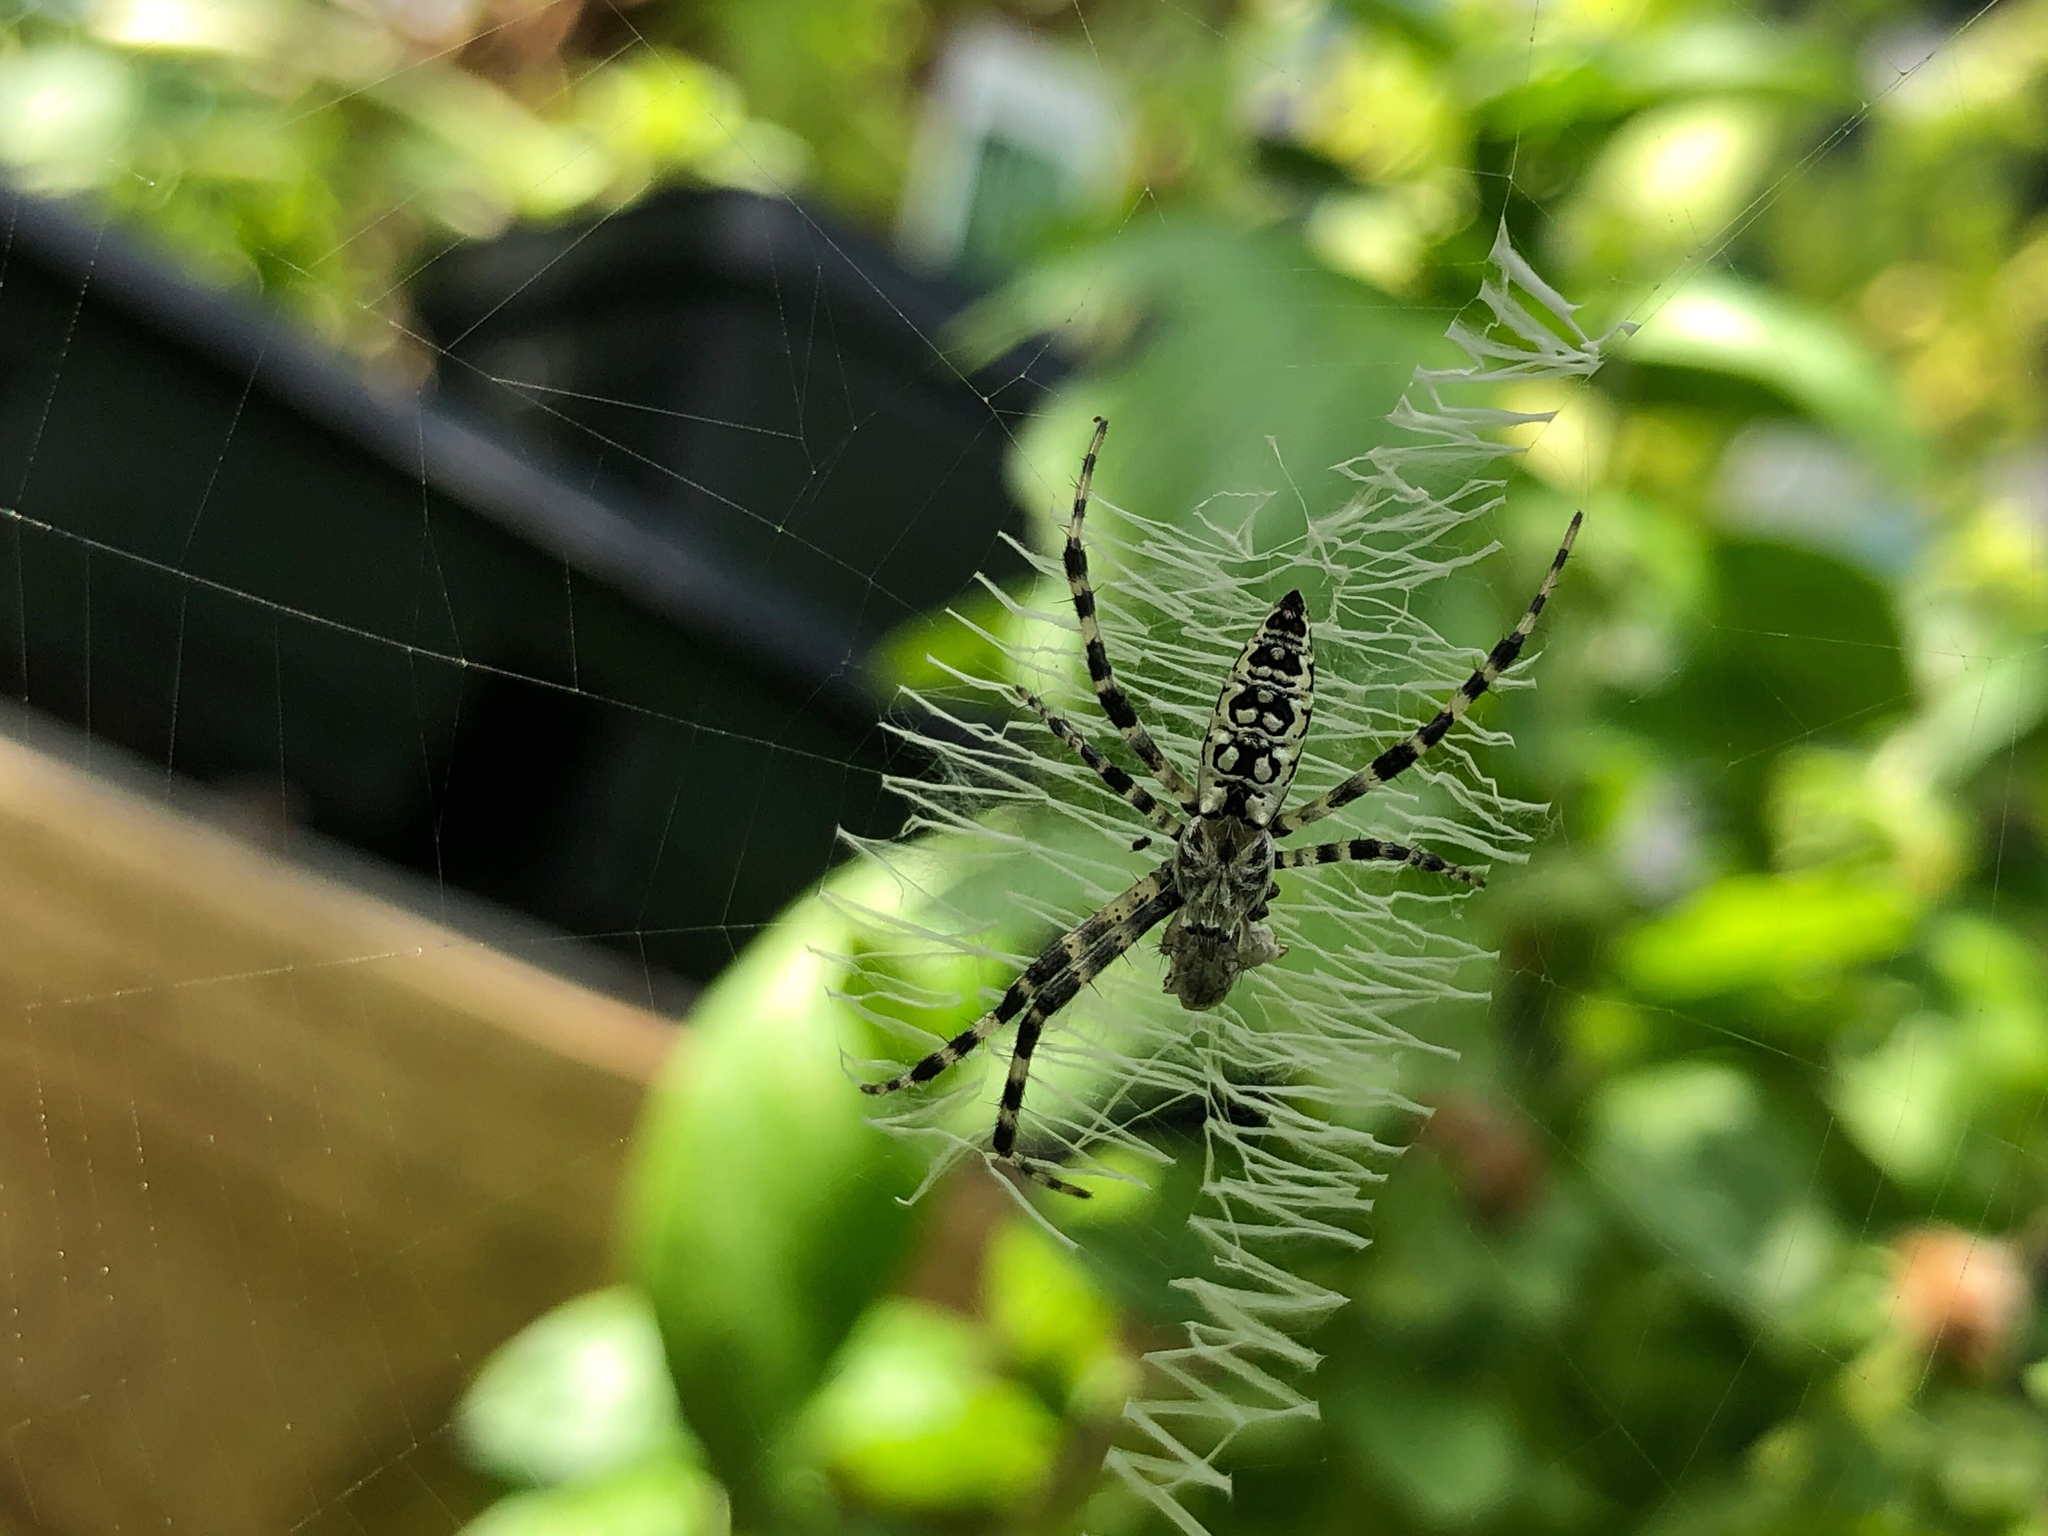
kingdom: Animalia
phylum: Arthropoda
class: Arachnida
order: Araneae
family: Araneidae
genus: Argiope
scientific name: Argiope aurantia
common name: Orb weavers
